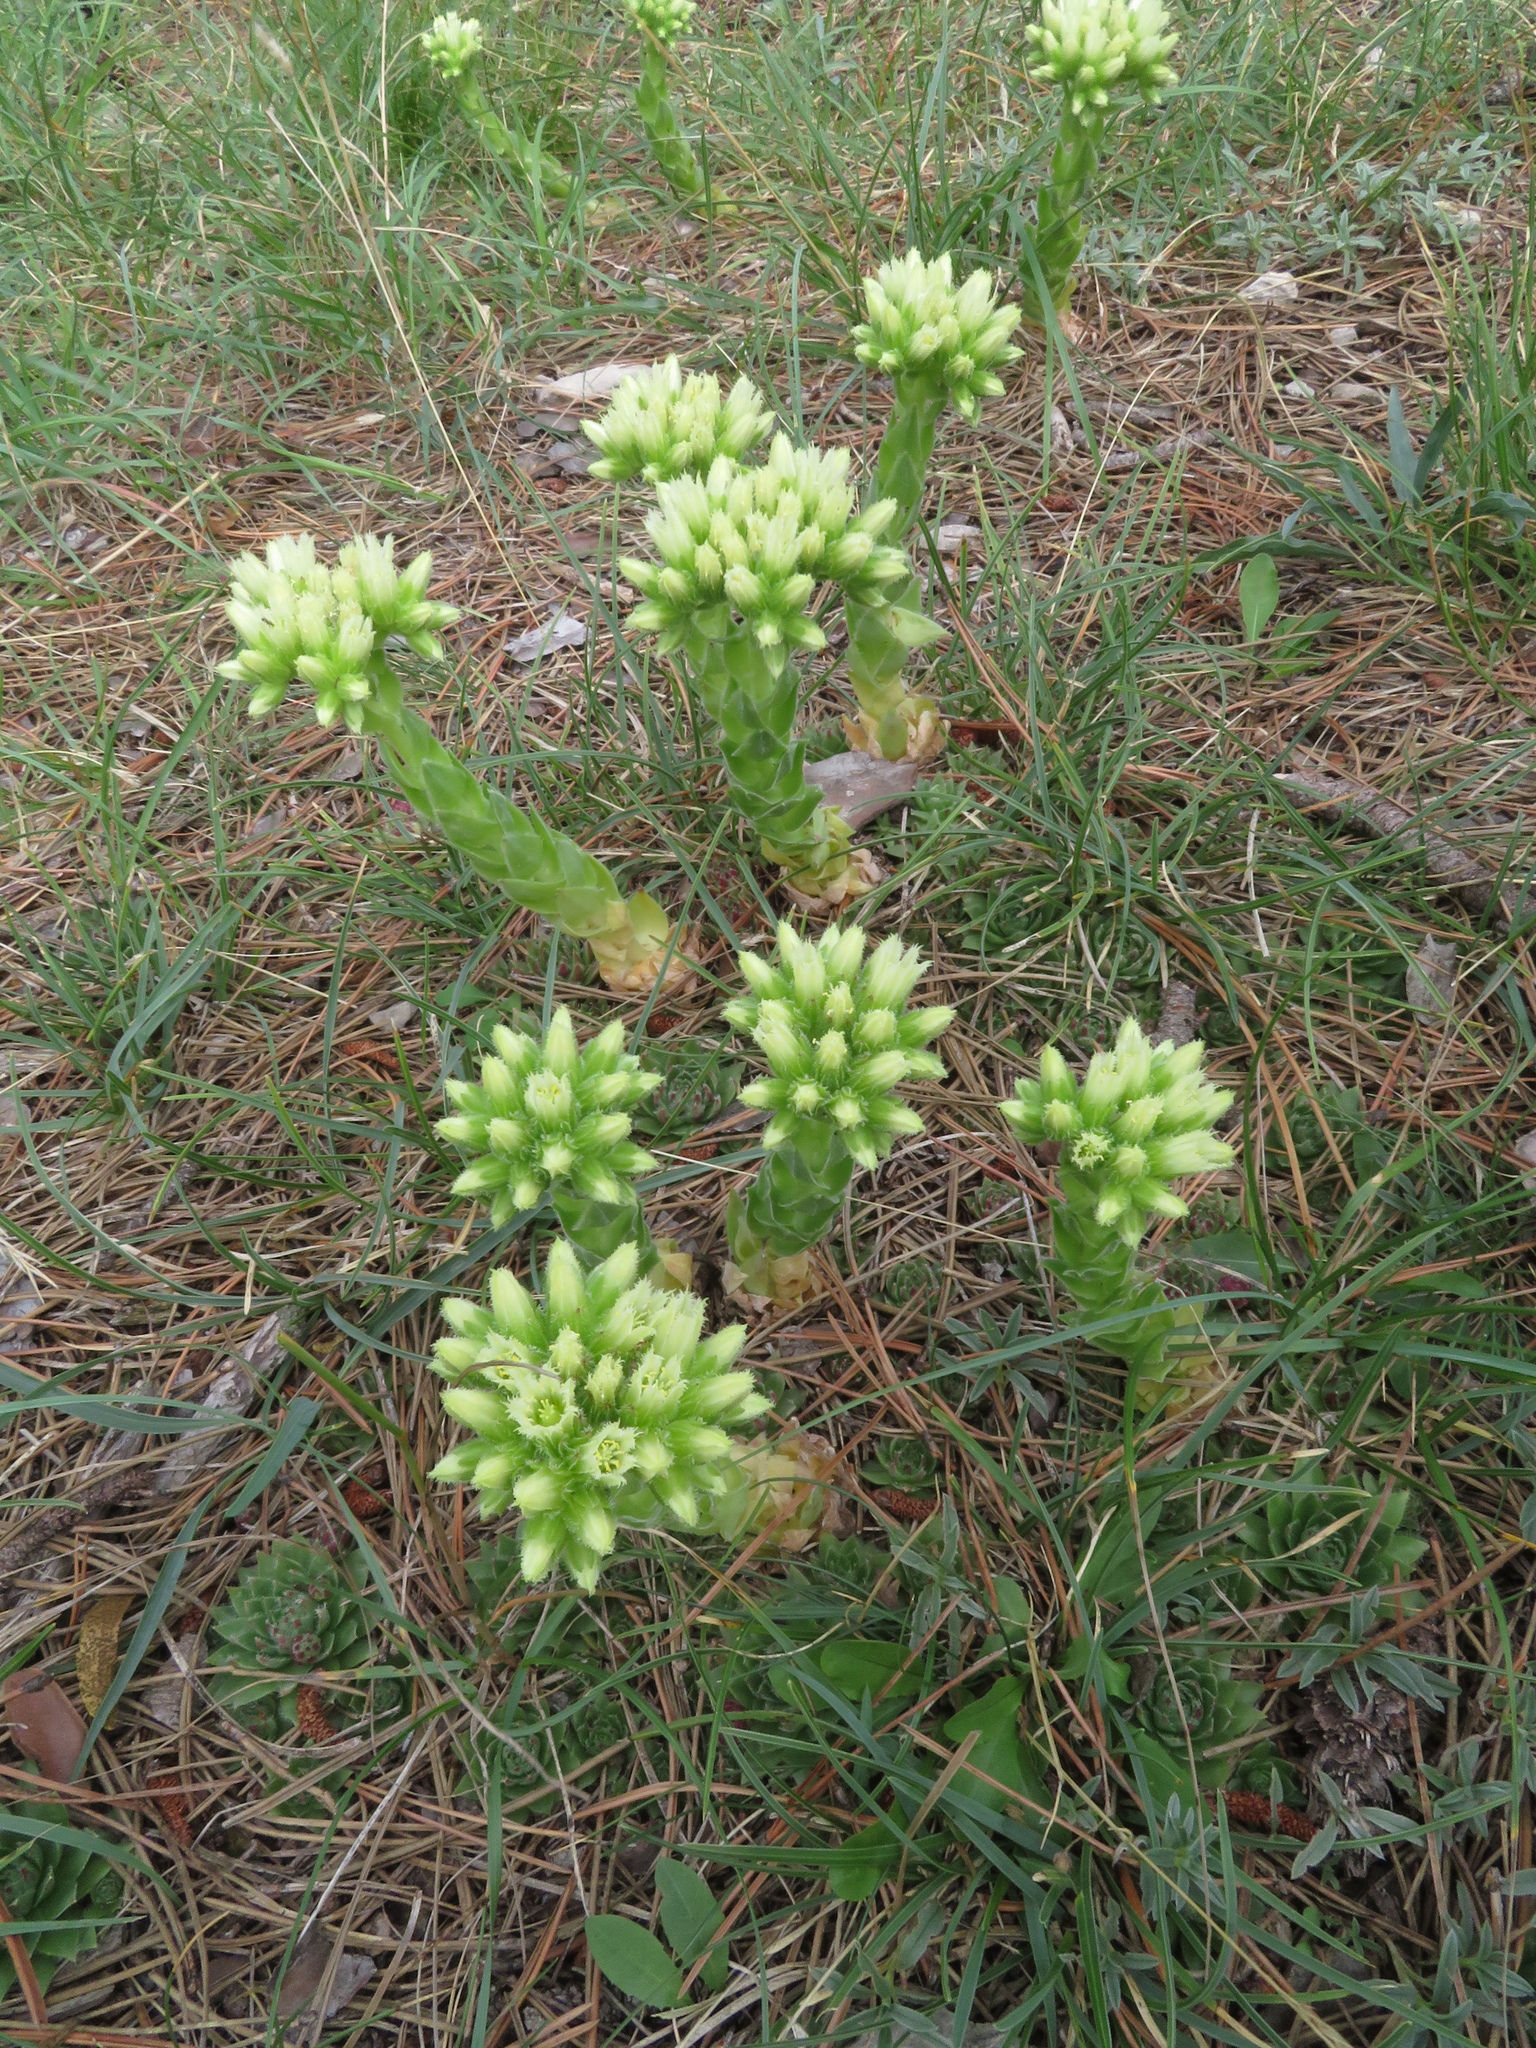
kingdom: Plantae
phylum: Tracheophyta
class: Magnoliopsida
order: Saxifragales
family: Crassulaceae
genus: Sempervivum
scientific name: Sempervivum globiferum
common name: Rolling hen-and-chicks
